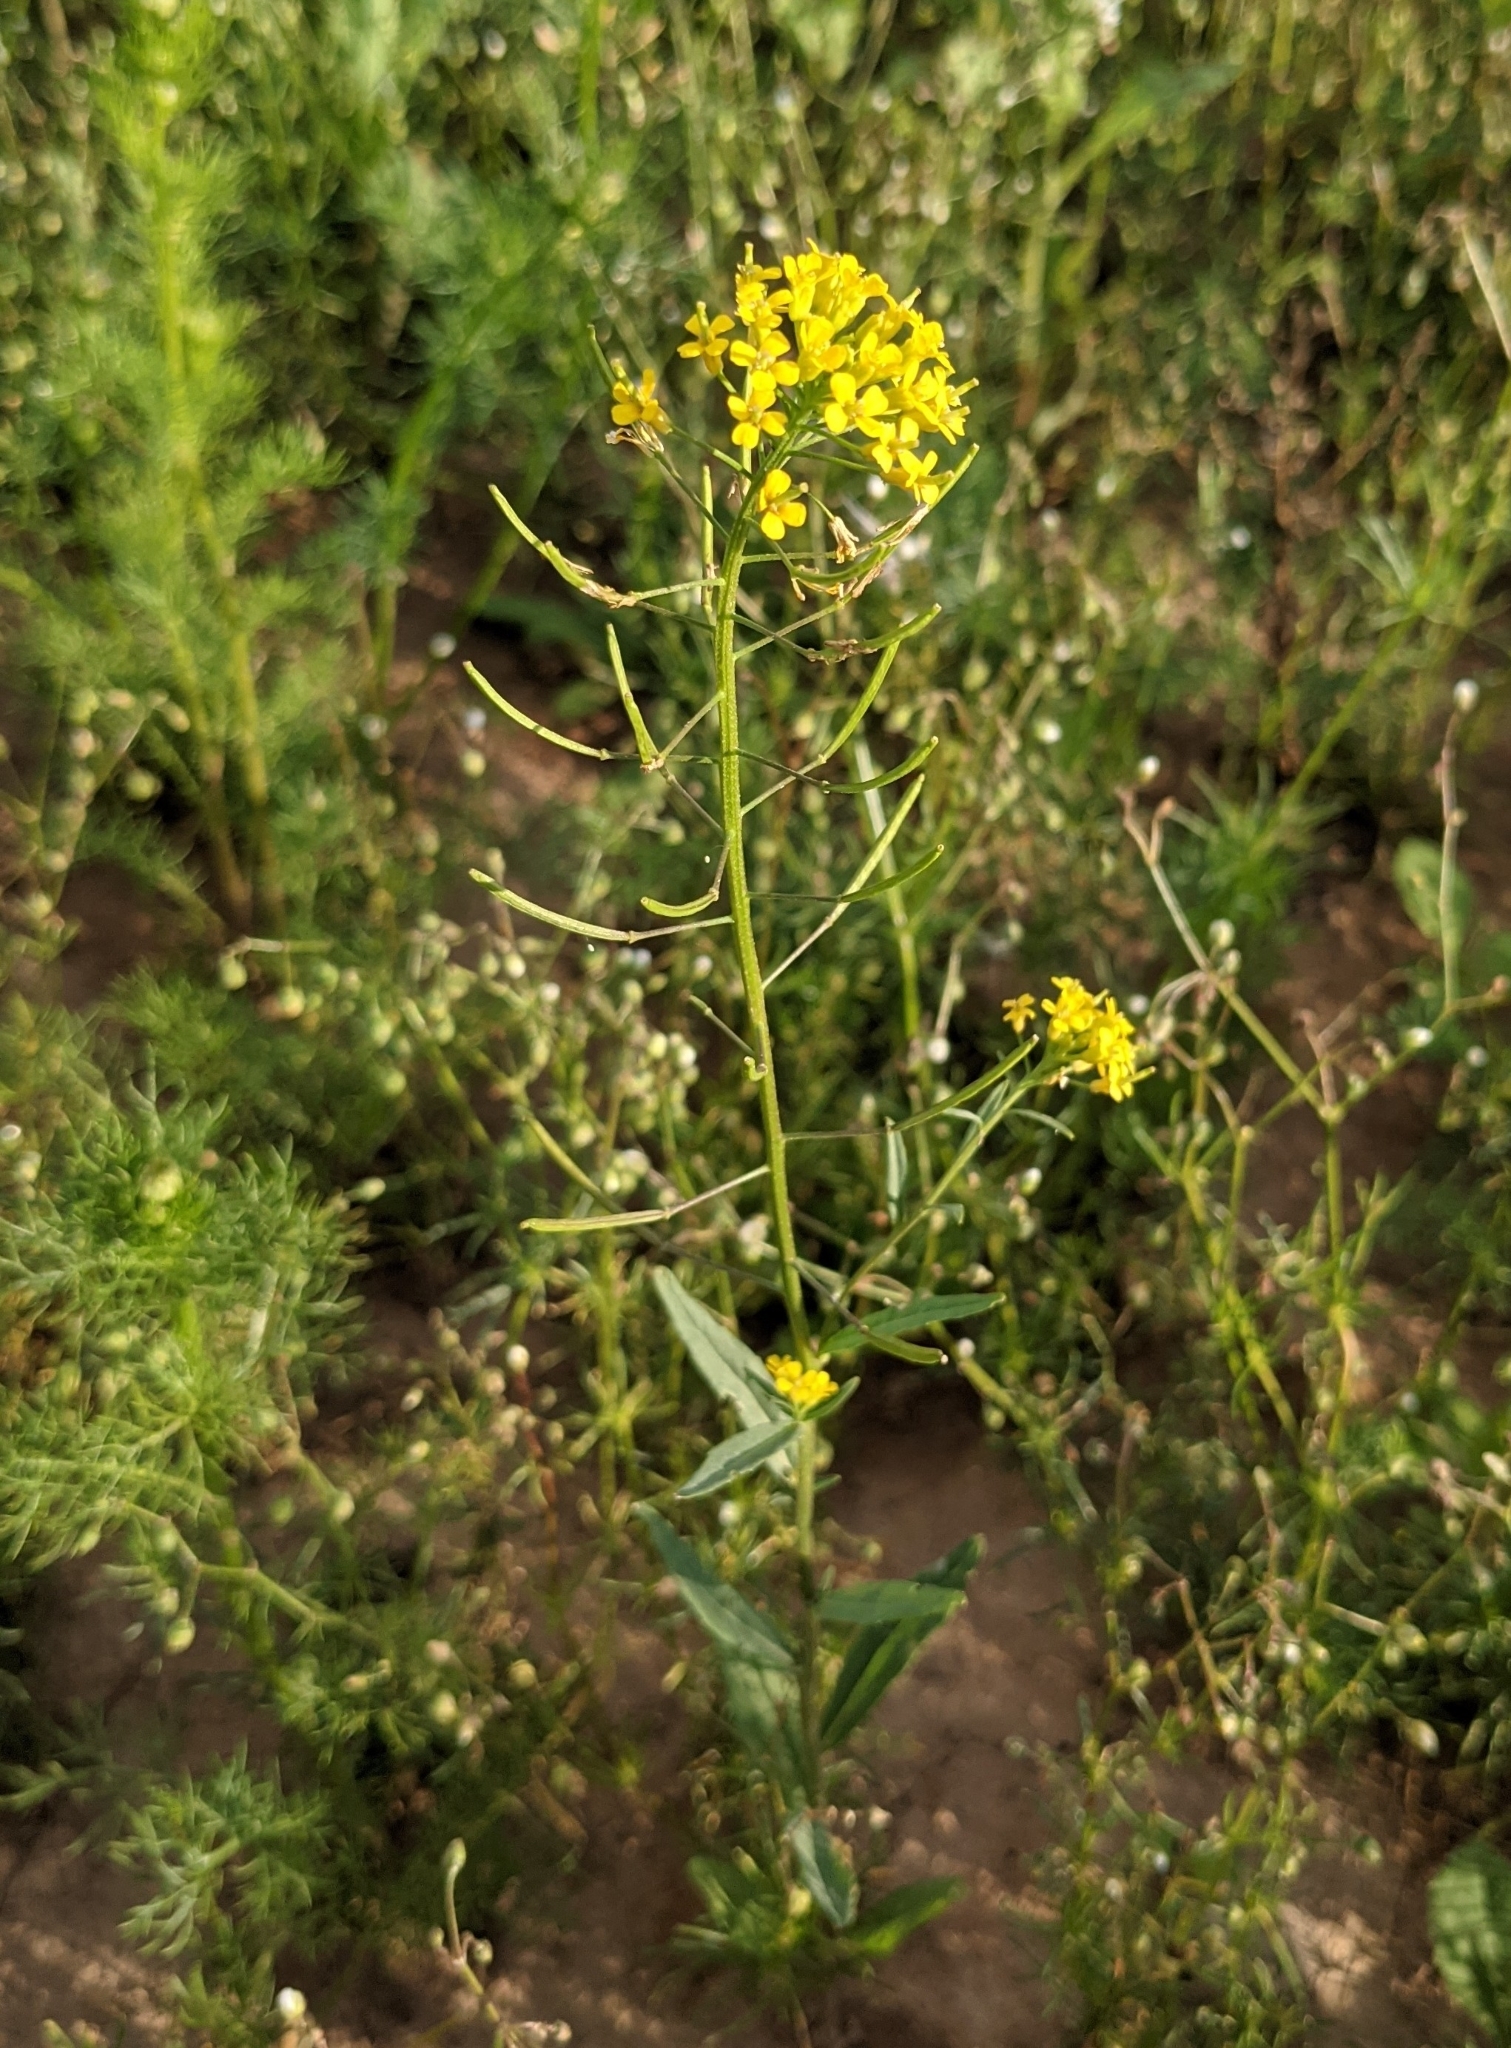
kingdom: Plantae
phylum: Tracheophyta
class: Magnoliopsida
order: Brassicales
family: Brassicaceae
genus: Erysimum
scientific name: Erysimum cheiranthoides
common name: Treacle mustard
